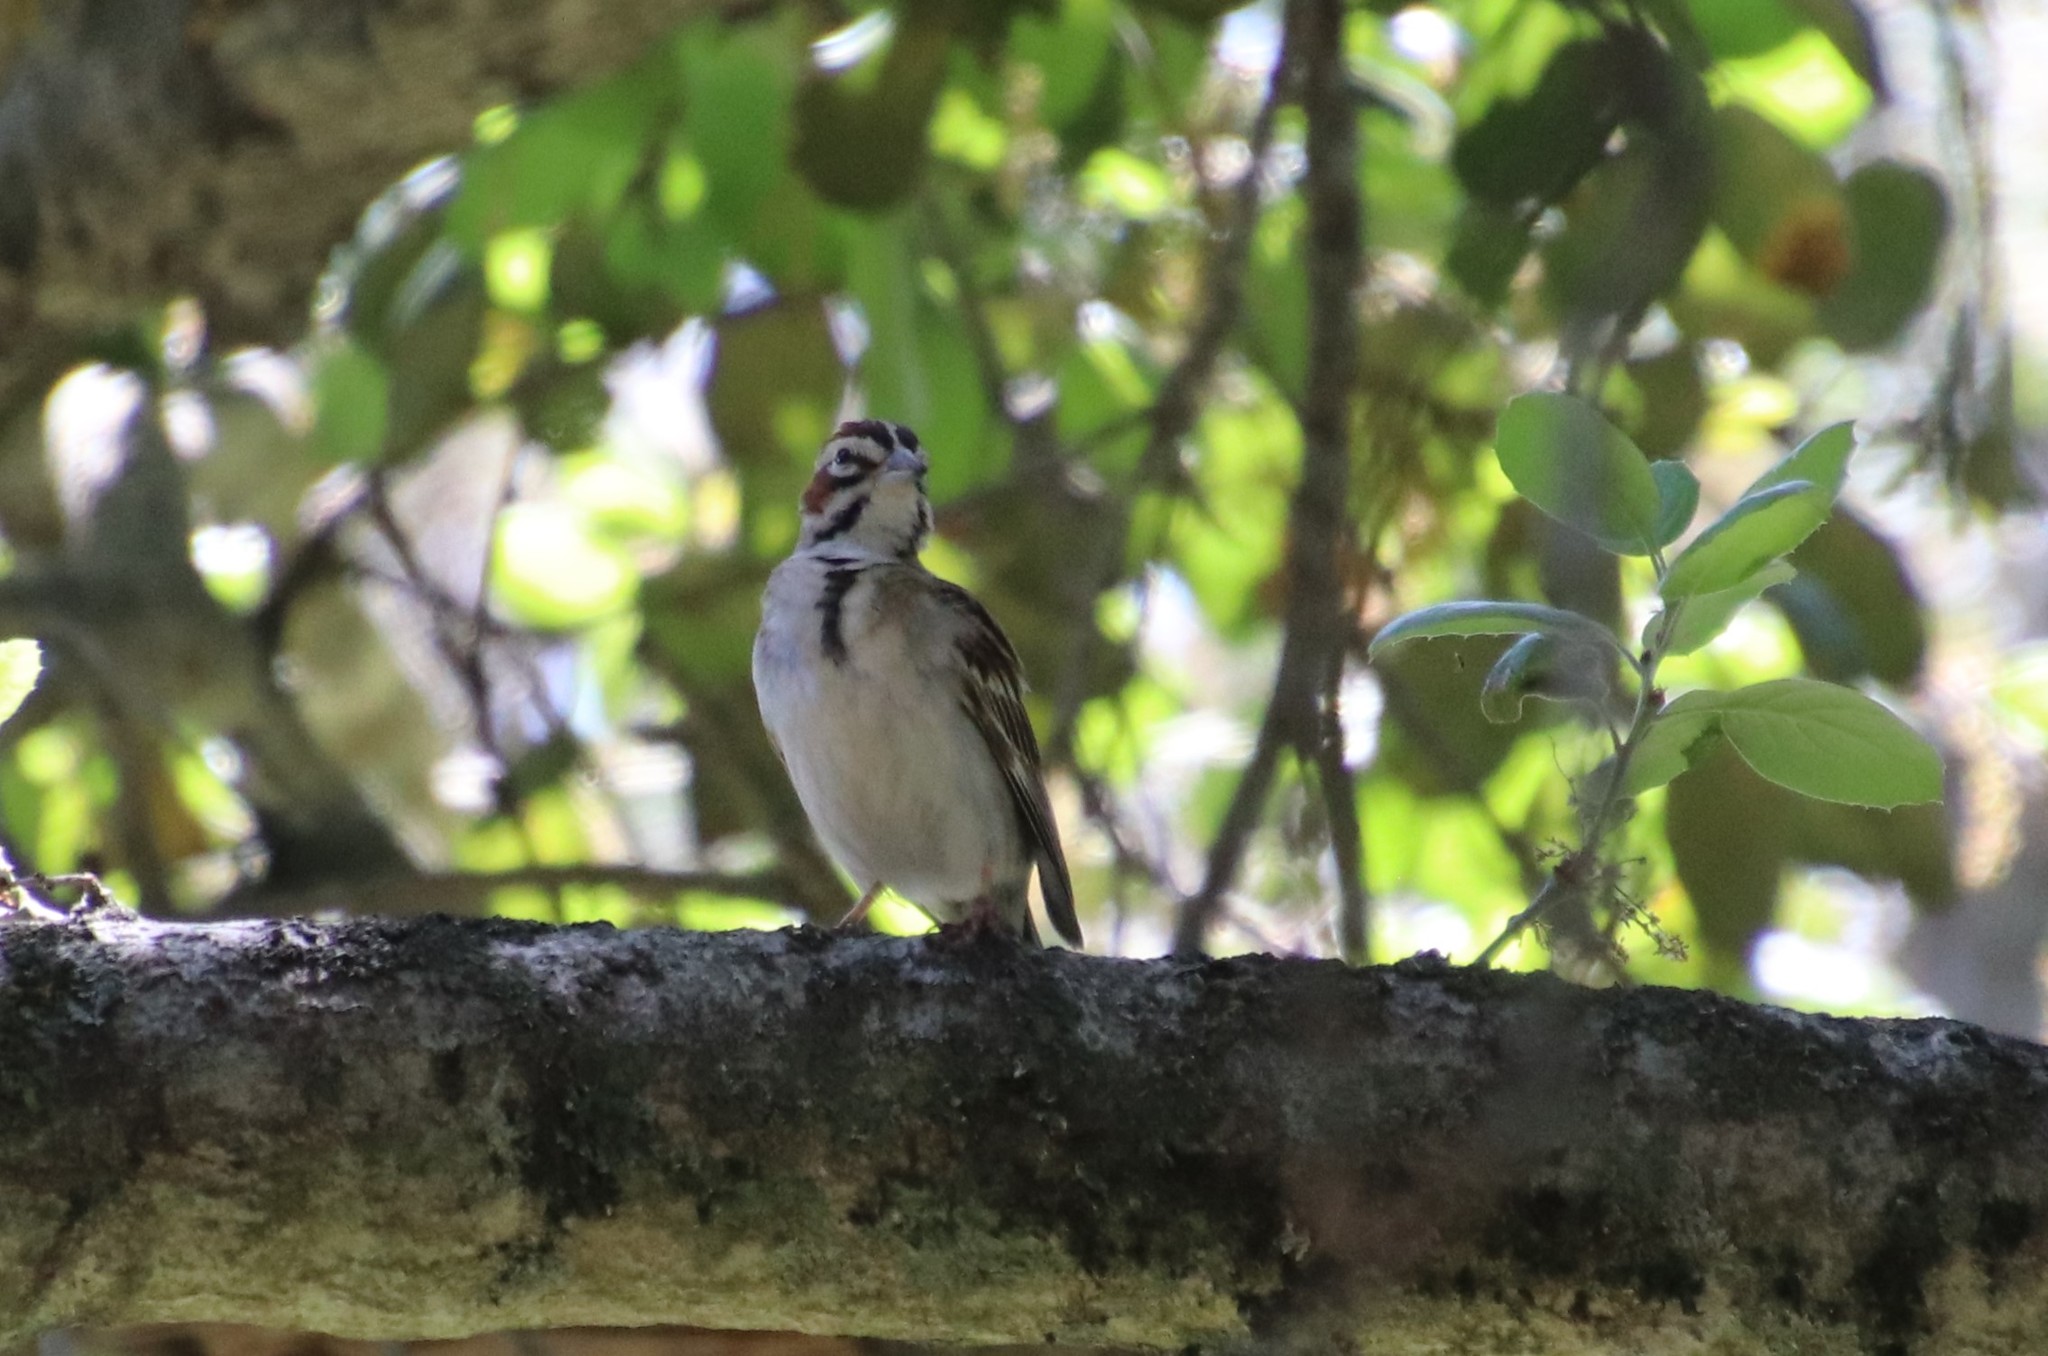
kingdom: Animalia
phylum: Chordata
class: Aves
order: Passeriformes
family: Passerellidae
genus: Chondestes
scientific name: Chondestes grammacus
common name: Lark sparrow
